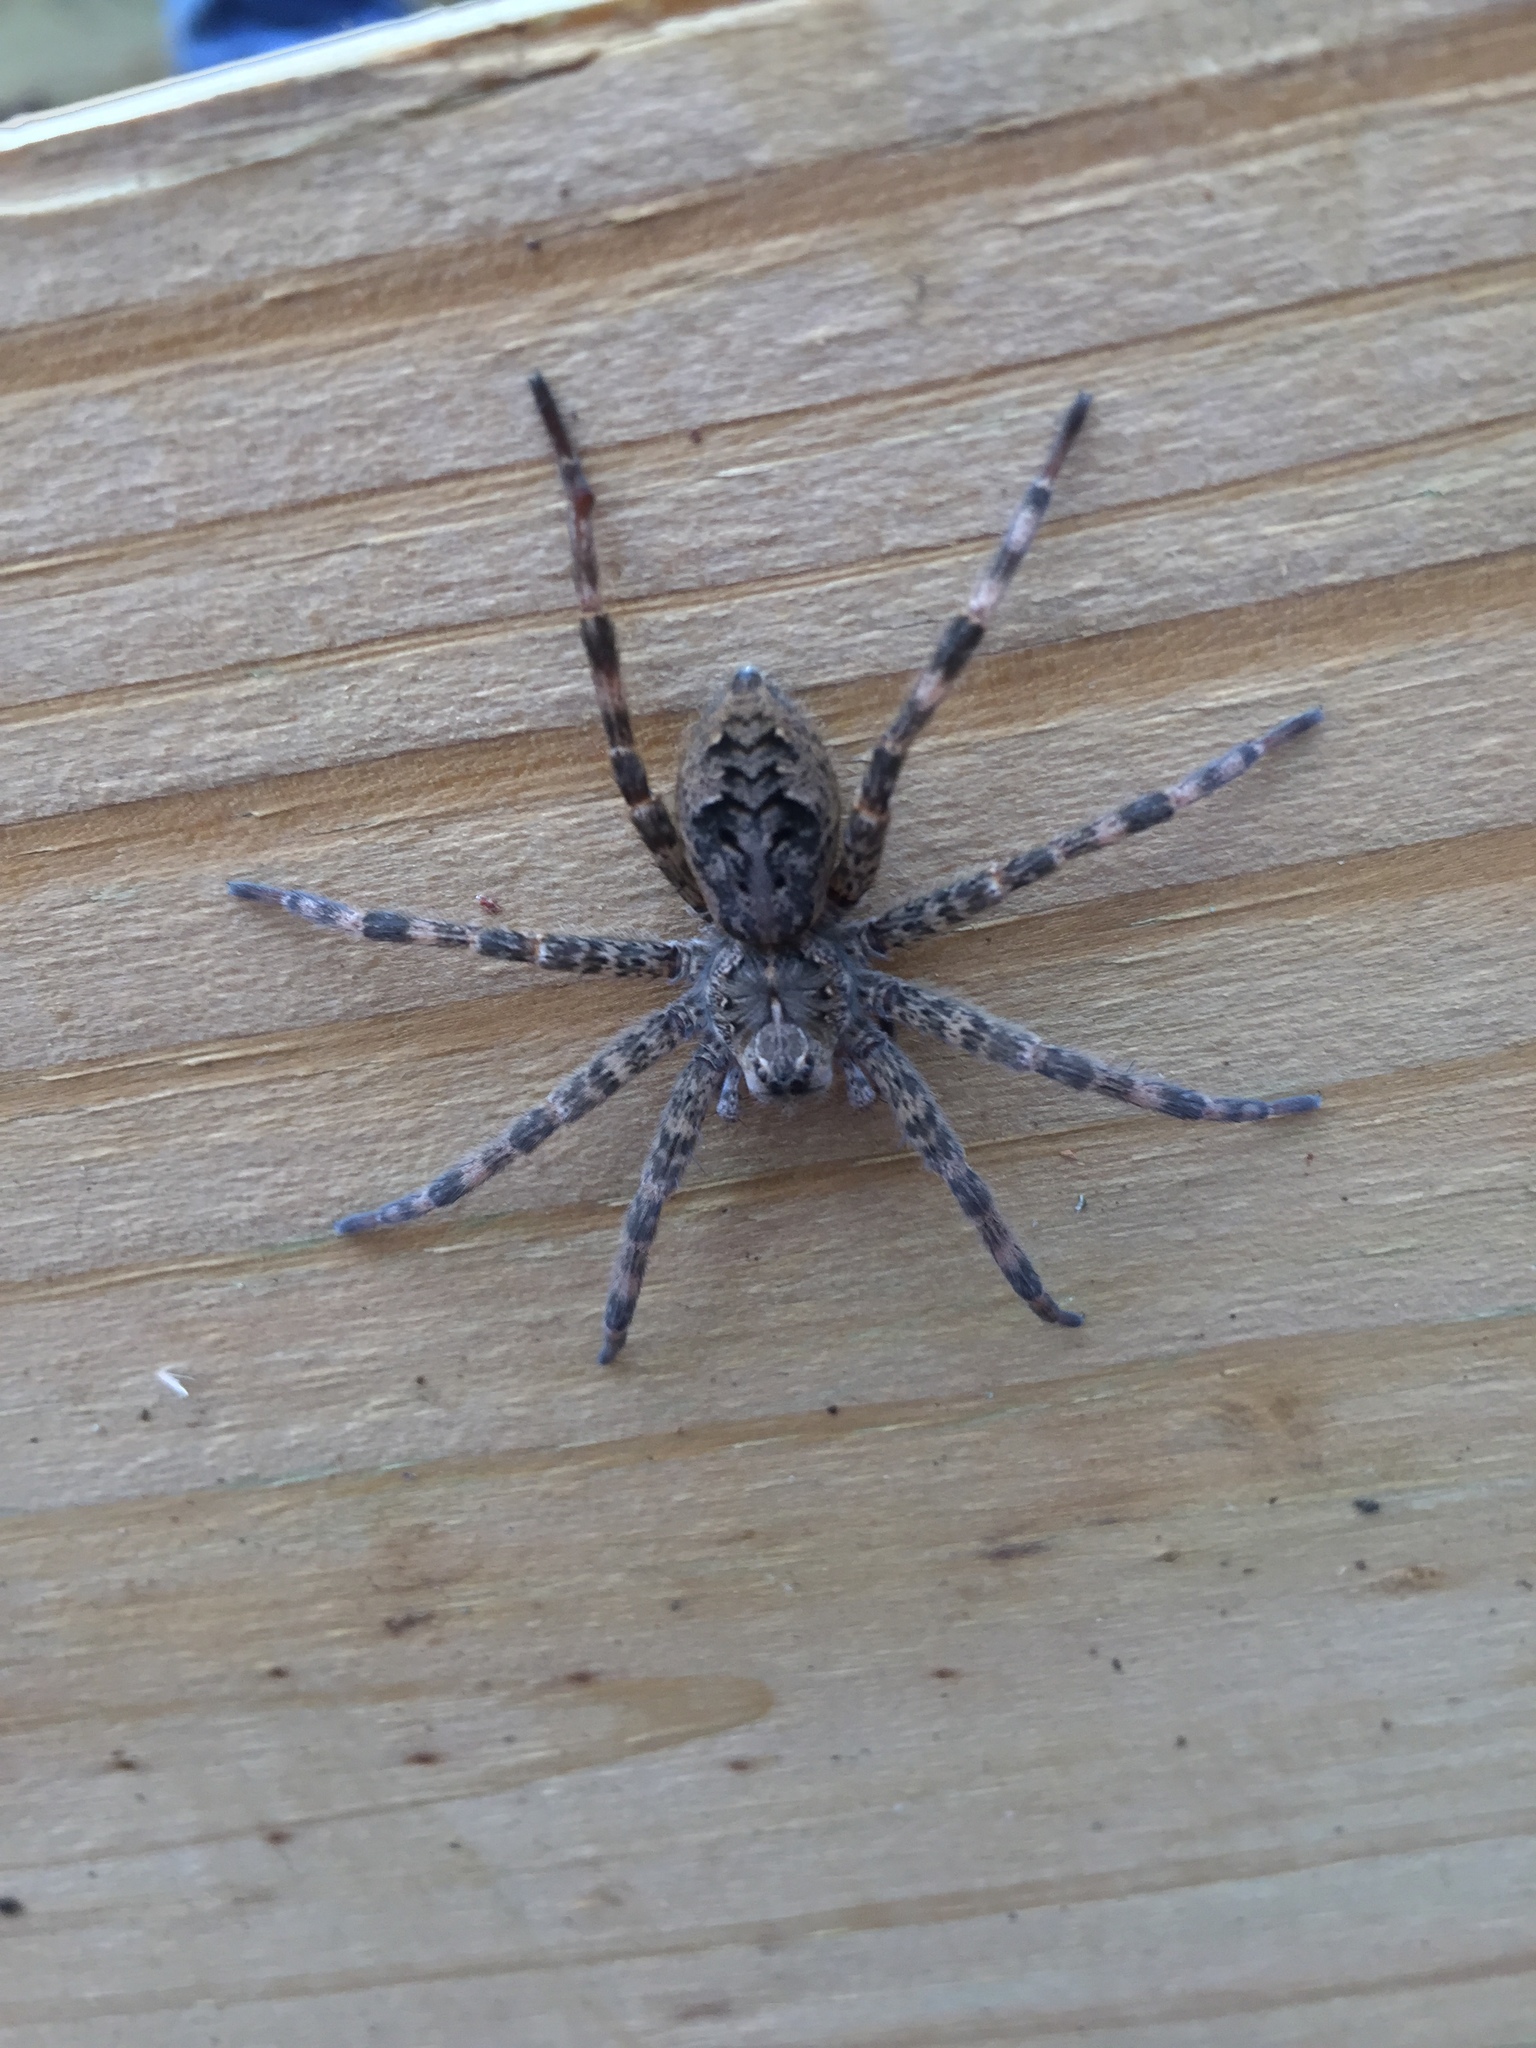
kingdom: Animalia
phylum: Arthropoda
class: Arachnida
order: Araneae
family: Pisauridae
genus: Dolomedes
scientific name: Dolomedes tenebrosus
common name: Dark fishing spider
